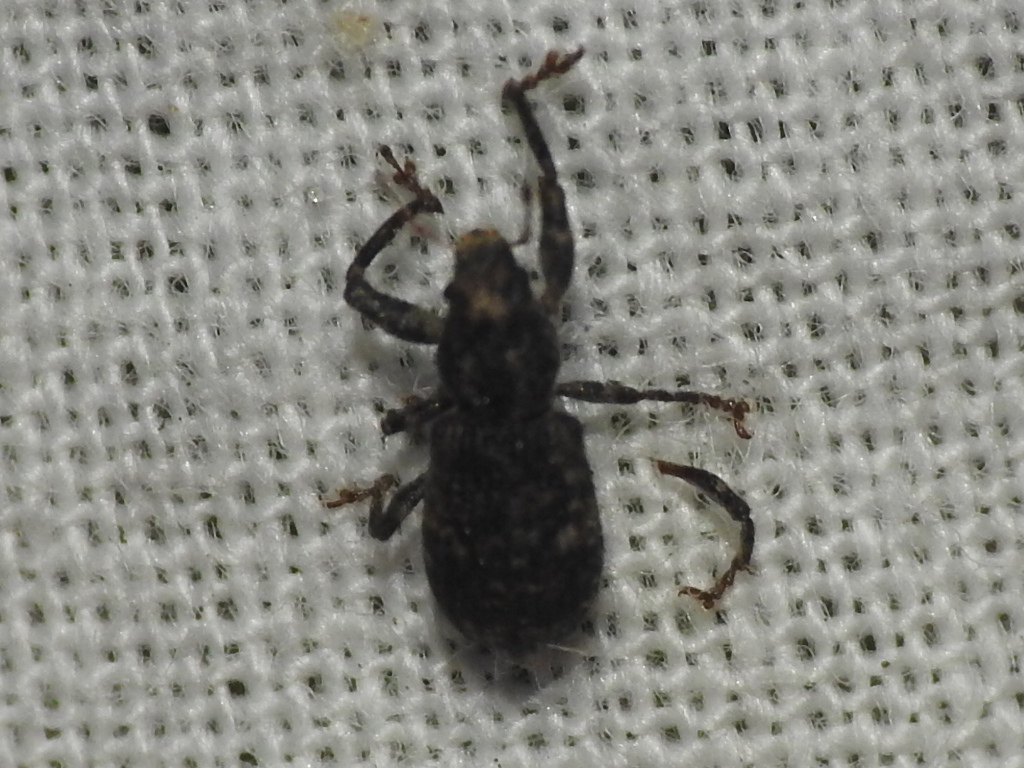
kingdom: Animalia
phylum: Arthropoda
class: Insecta
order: Coleoptera
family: Curculionidae
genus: Pandeleteius
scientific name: Pandeleteius hilaris
